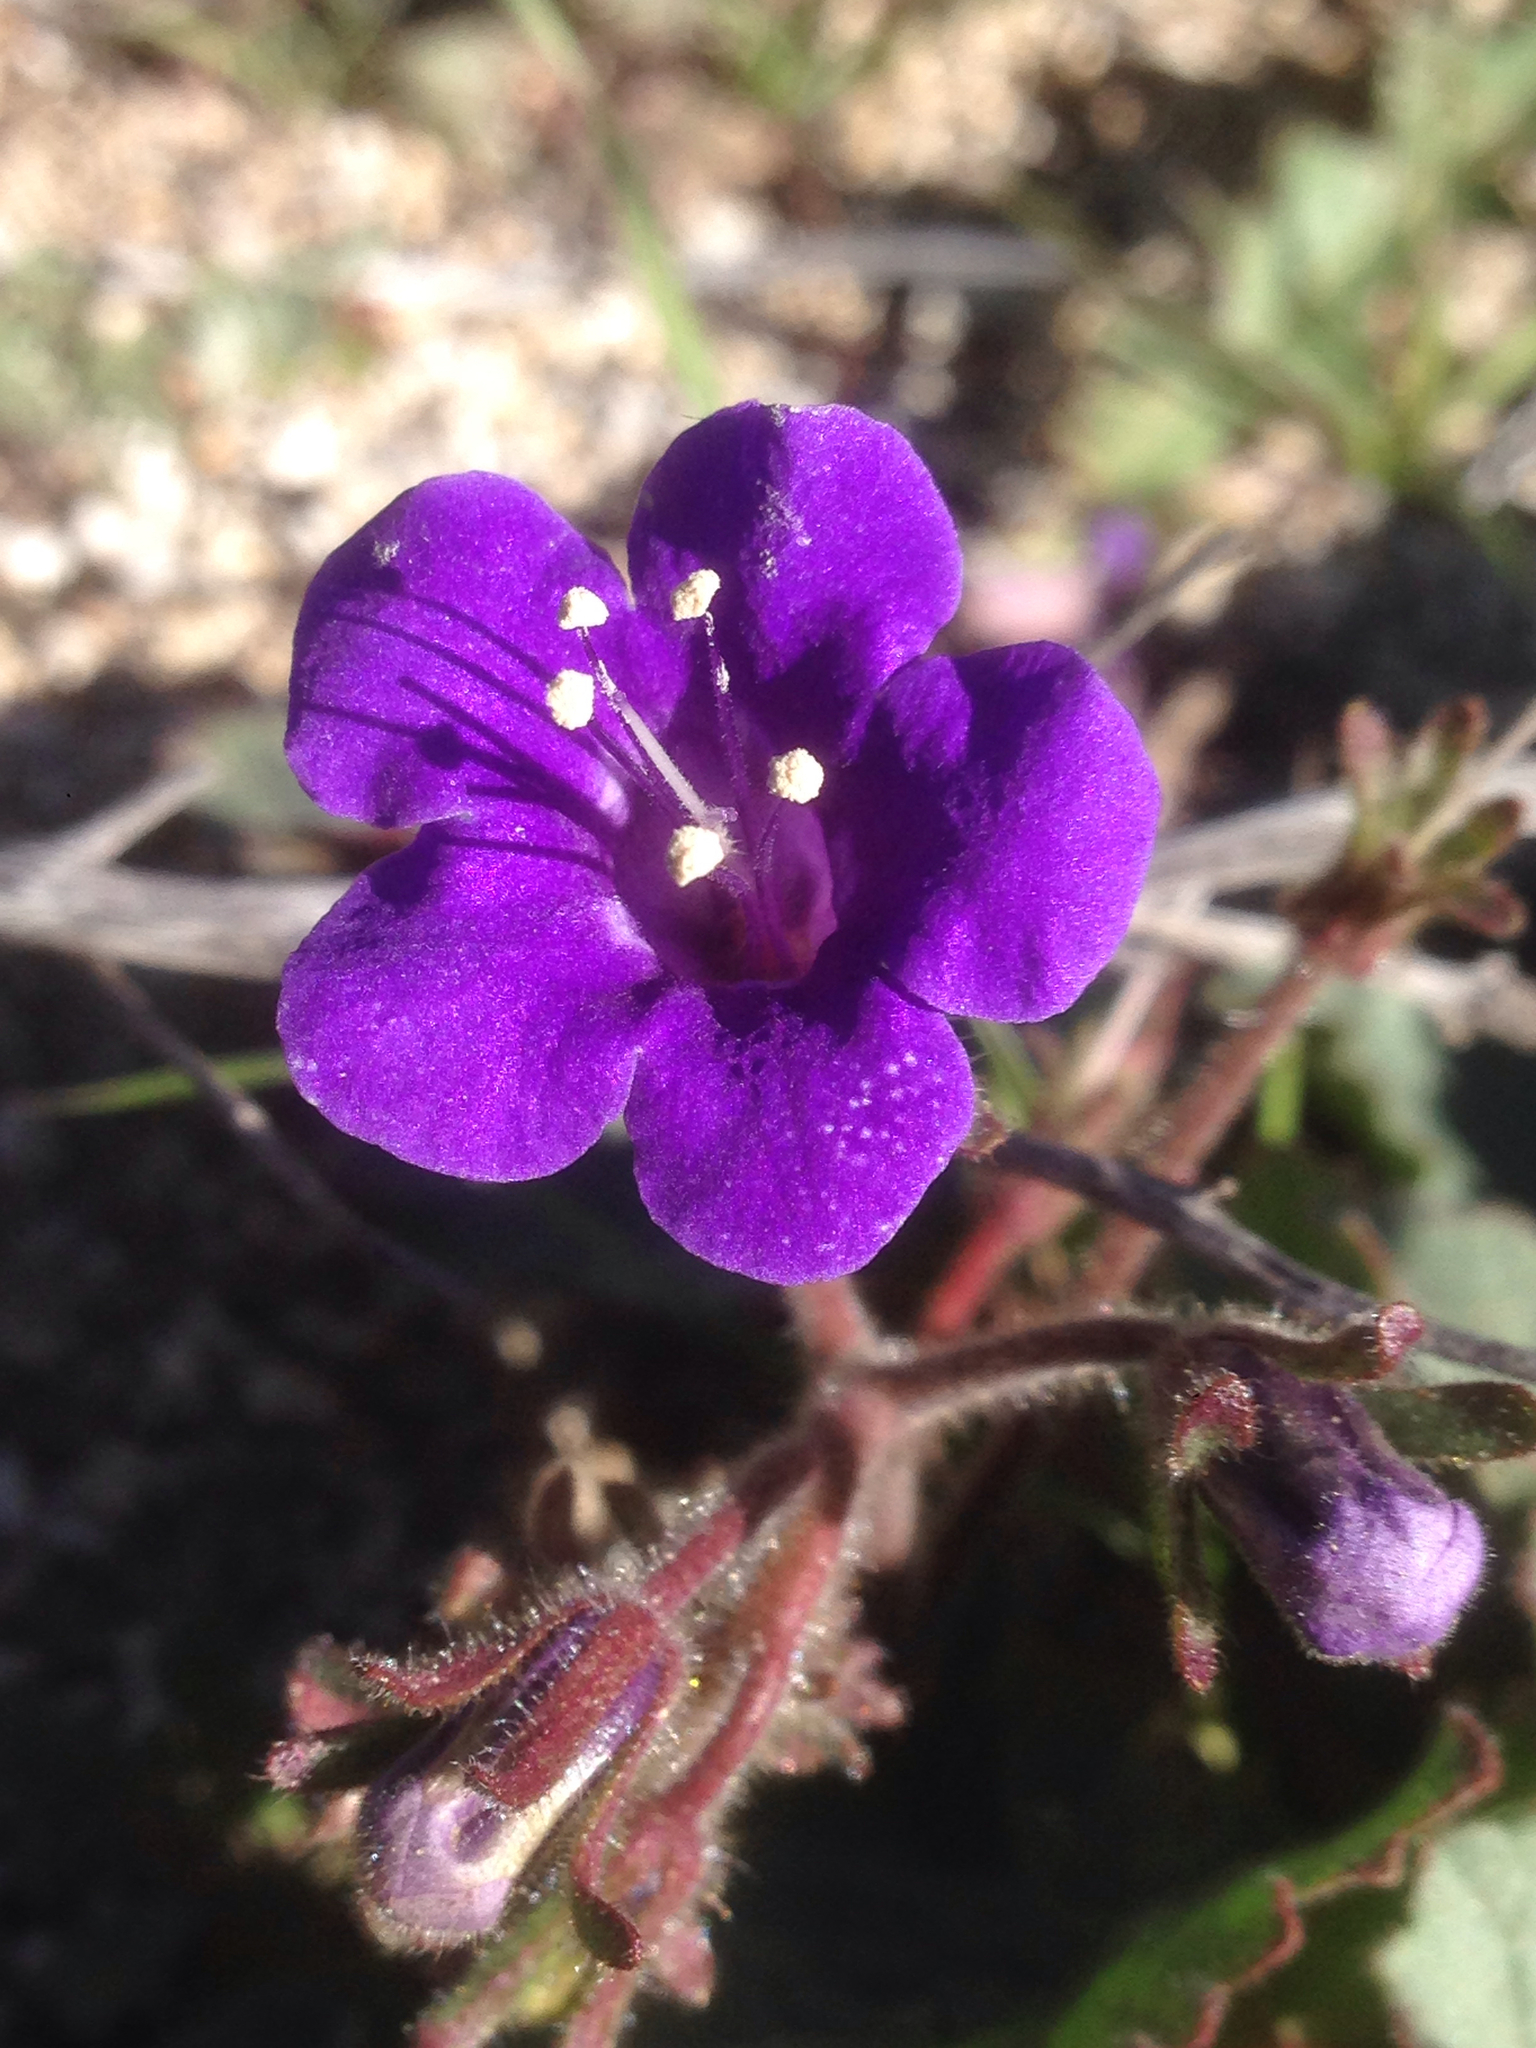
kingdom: Plantae
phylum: Tracheophyta
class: Magnoliopsida
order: Boraginales
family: Hydrophyllaceae
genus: Phacelia
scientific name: Phacelia minor
